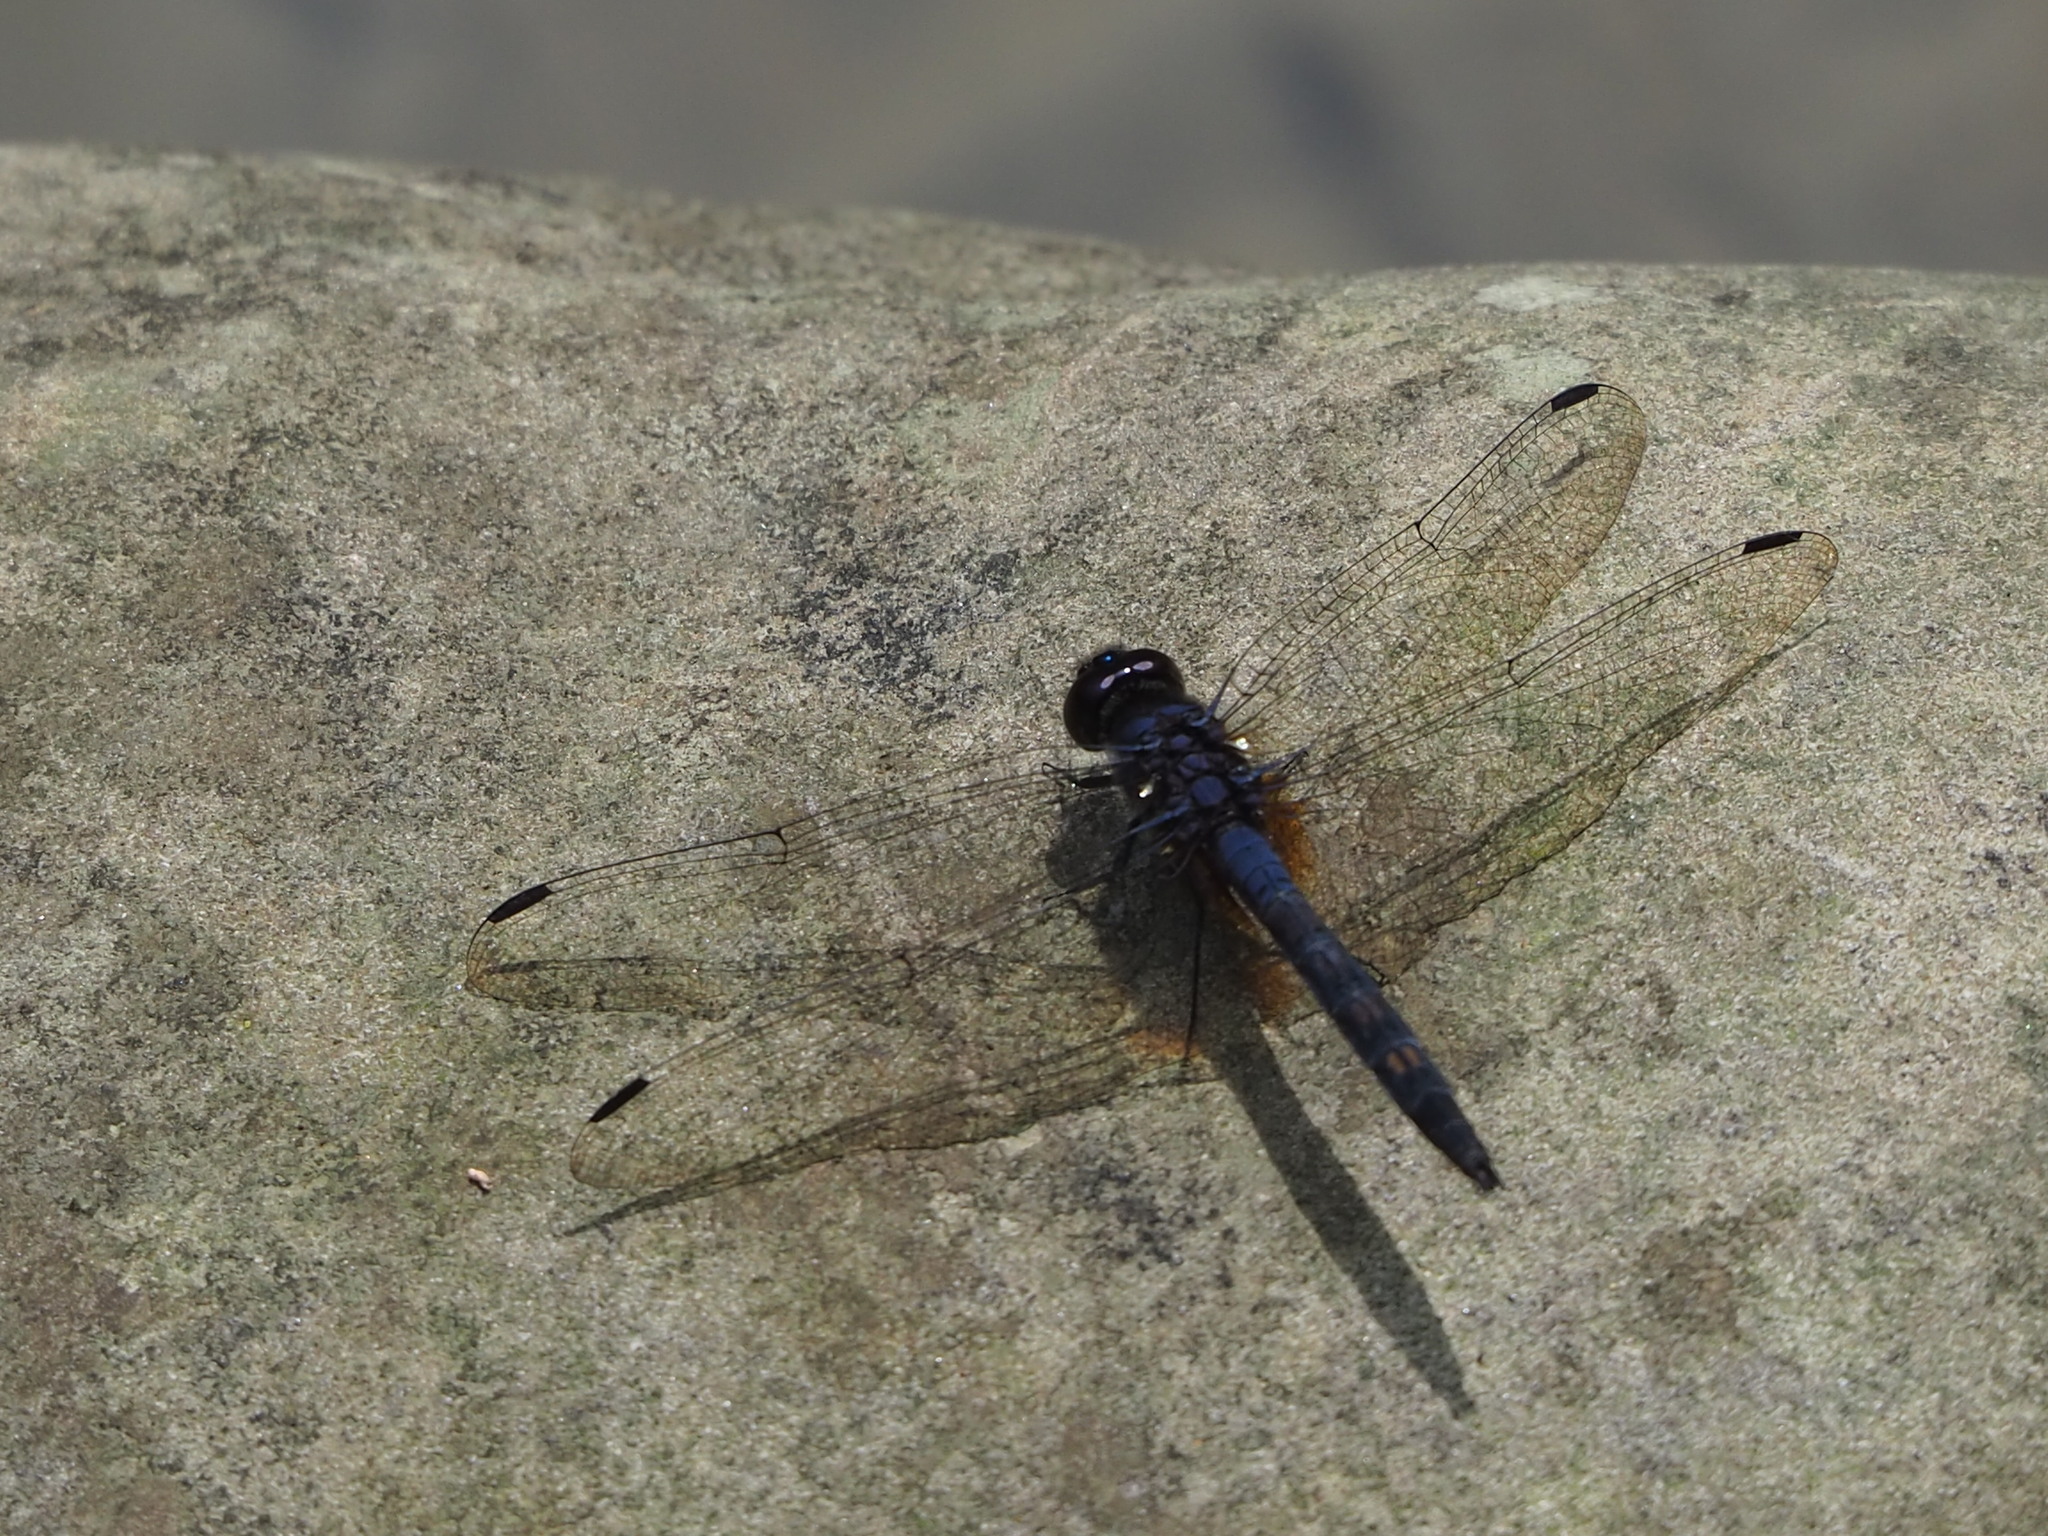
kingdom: Animalia
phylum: Arthropoda
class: Insecta
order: Odonata
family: Libellulidae
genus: Trithemis
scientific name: Trithemis festiva
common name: Indigo dropwing
